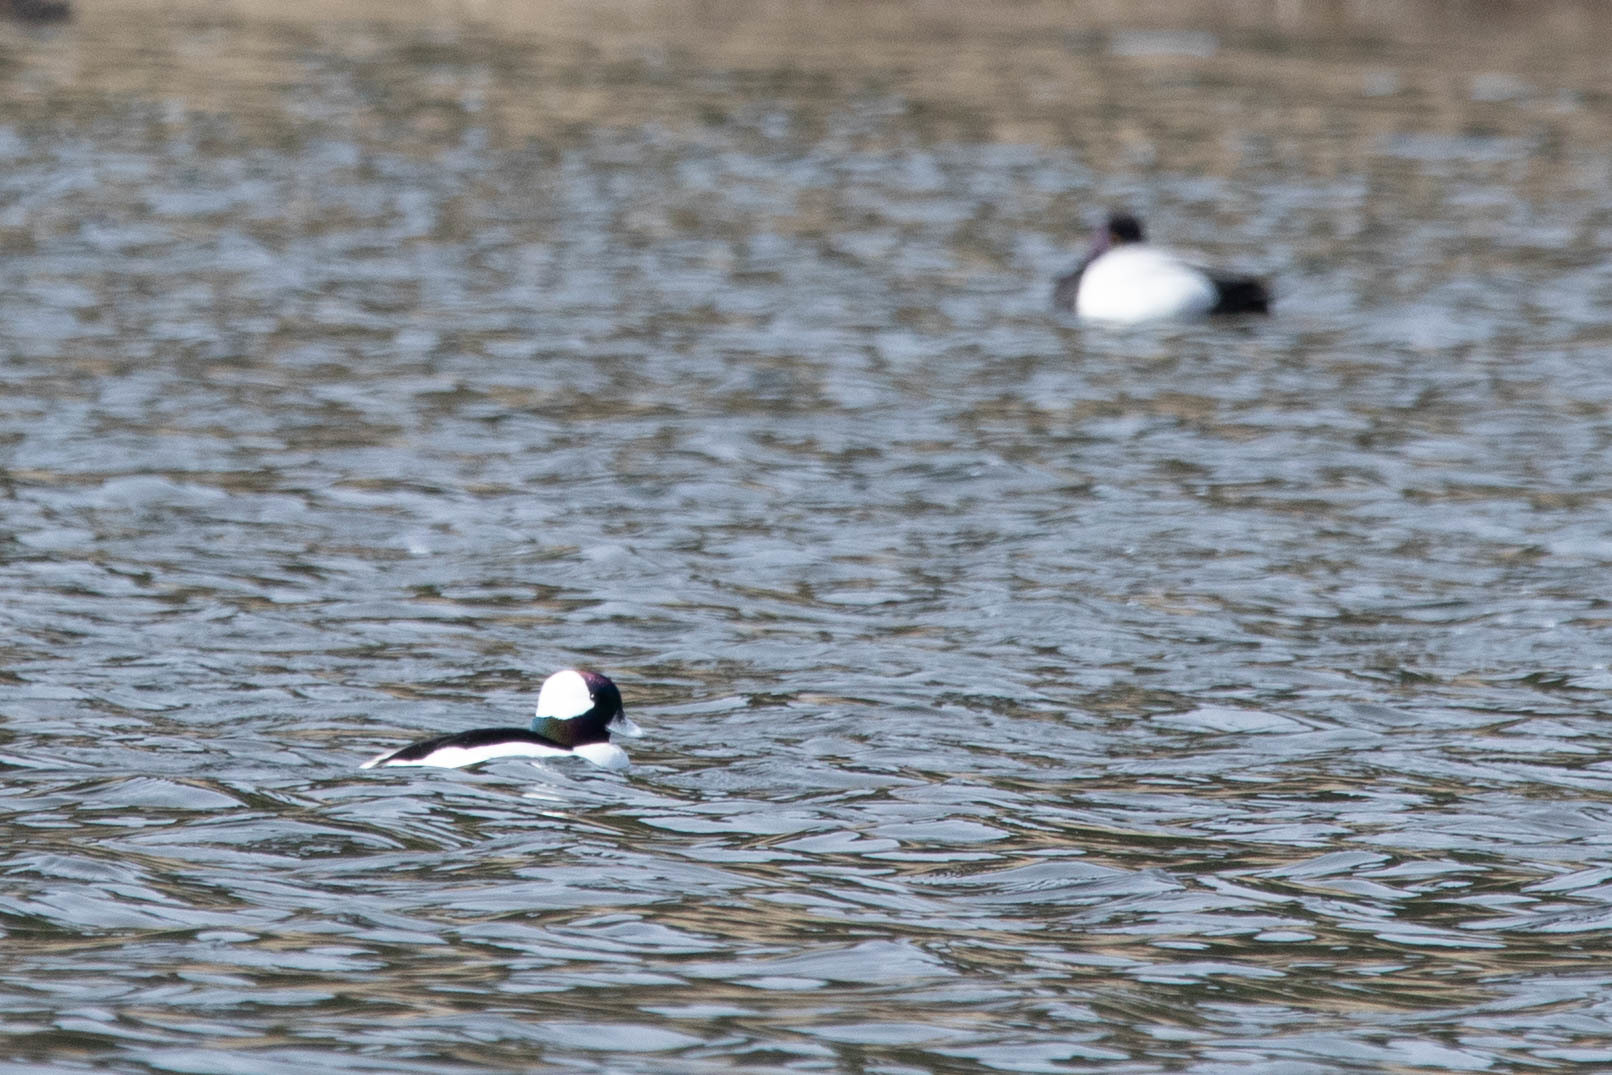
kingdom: Animalia
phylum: Chordata
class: Aves
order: Anseriformes
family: Anatidae
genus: Bucephala
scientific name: Bucephala albeola
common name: Bufflehead
